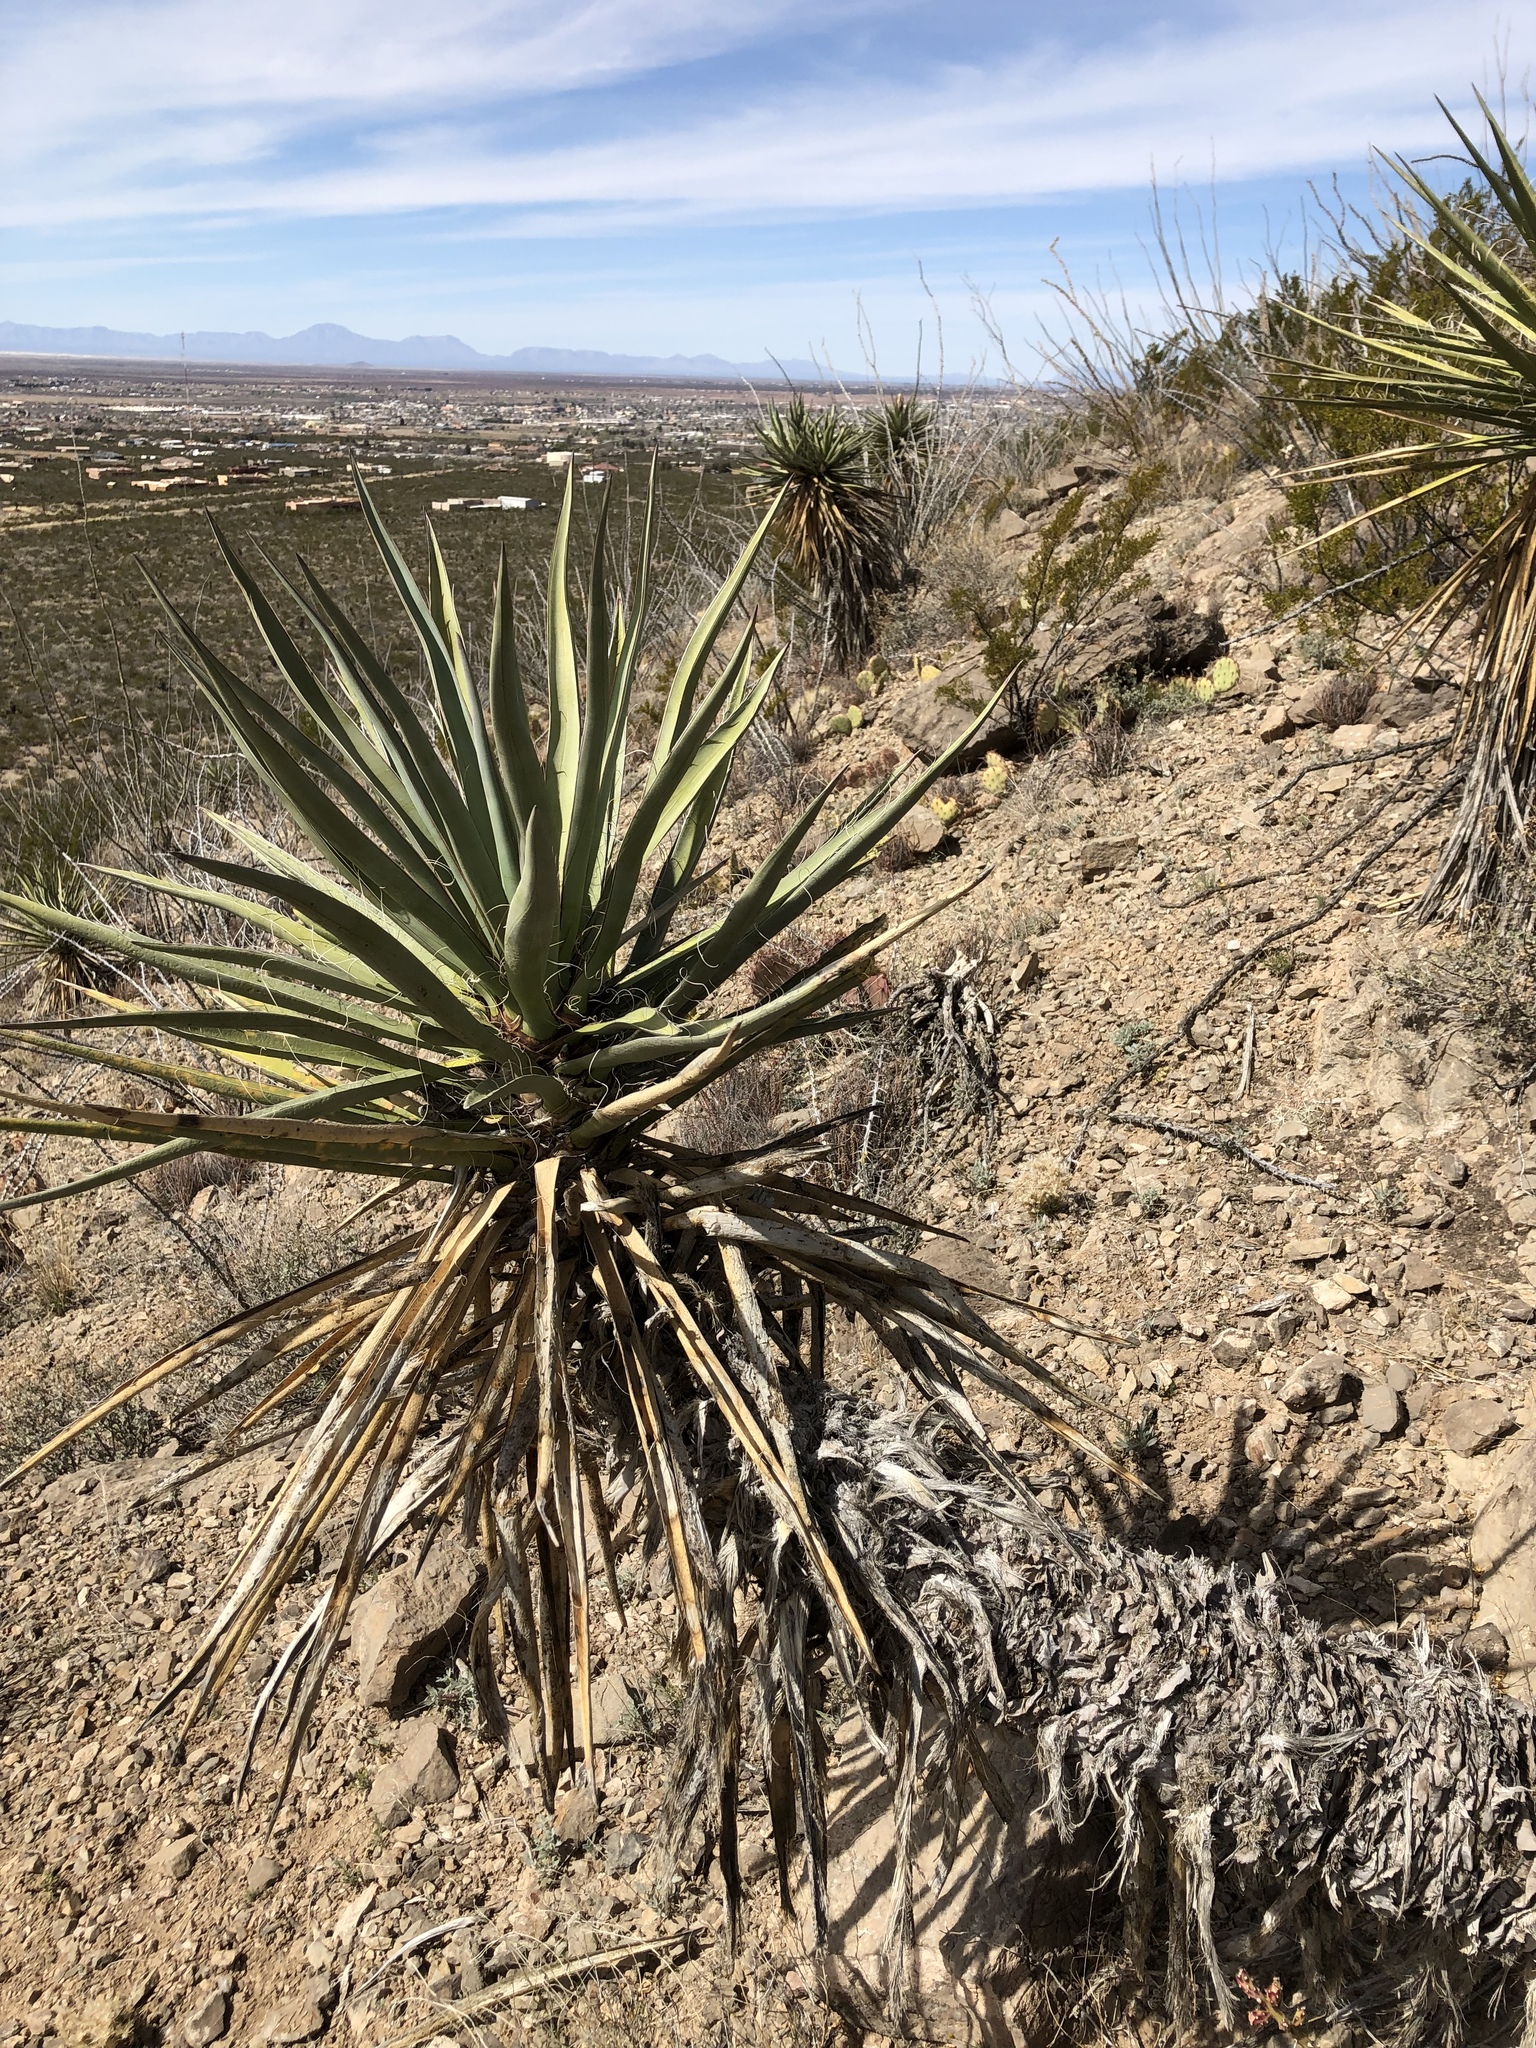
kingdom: Plantae
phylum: Tracheophyta
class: Liliopsida
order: Asparagales
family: Asparagaceae
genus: Yucca
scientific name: Yucca treculiana
